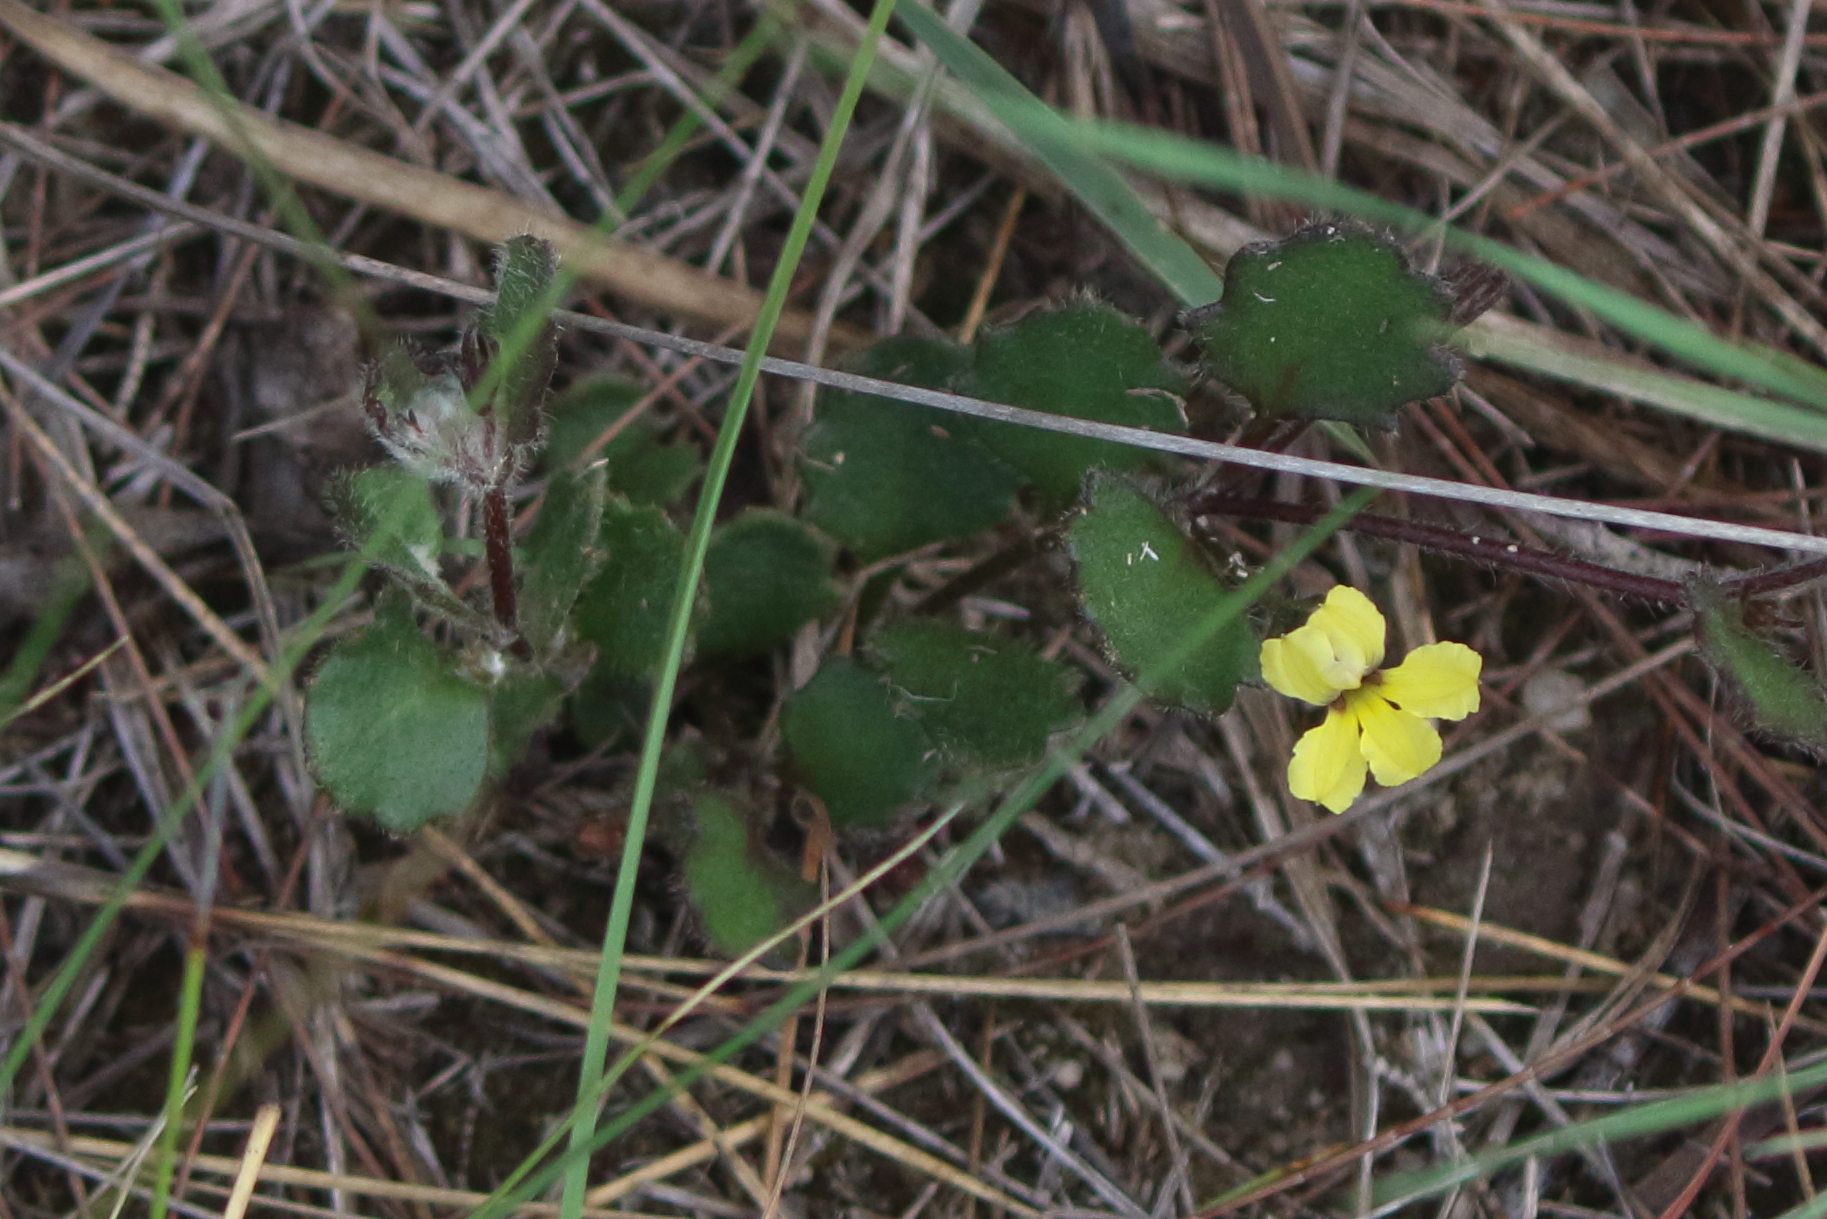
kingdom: Plantae
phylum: Tracheophyta
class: Magnoliopsida
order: Asterales
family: Goodeniaceae
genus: Goodenia
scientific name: Goodenia rotundifolia
